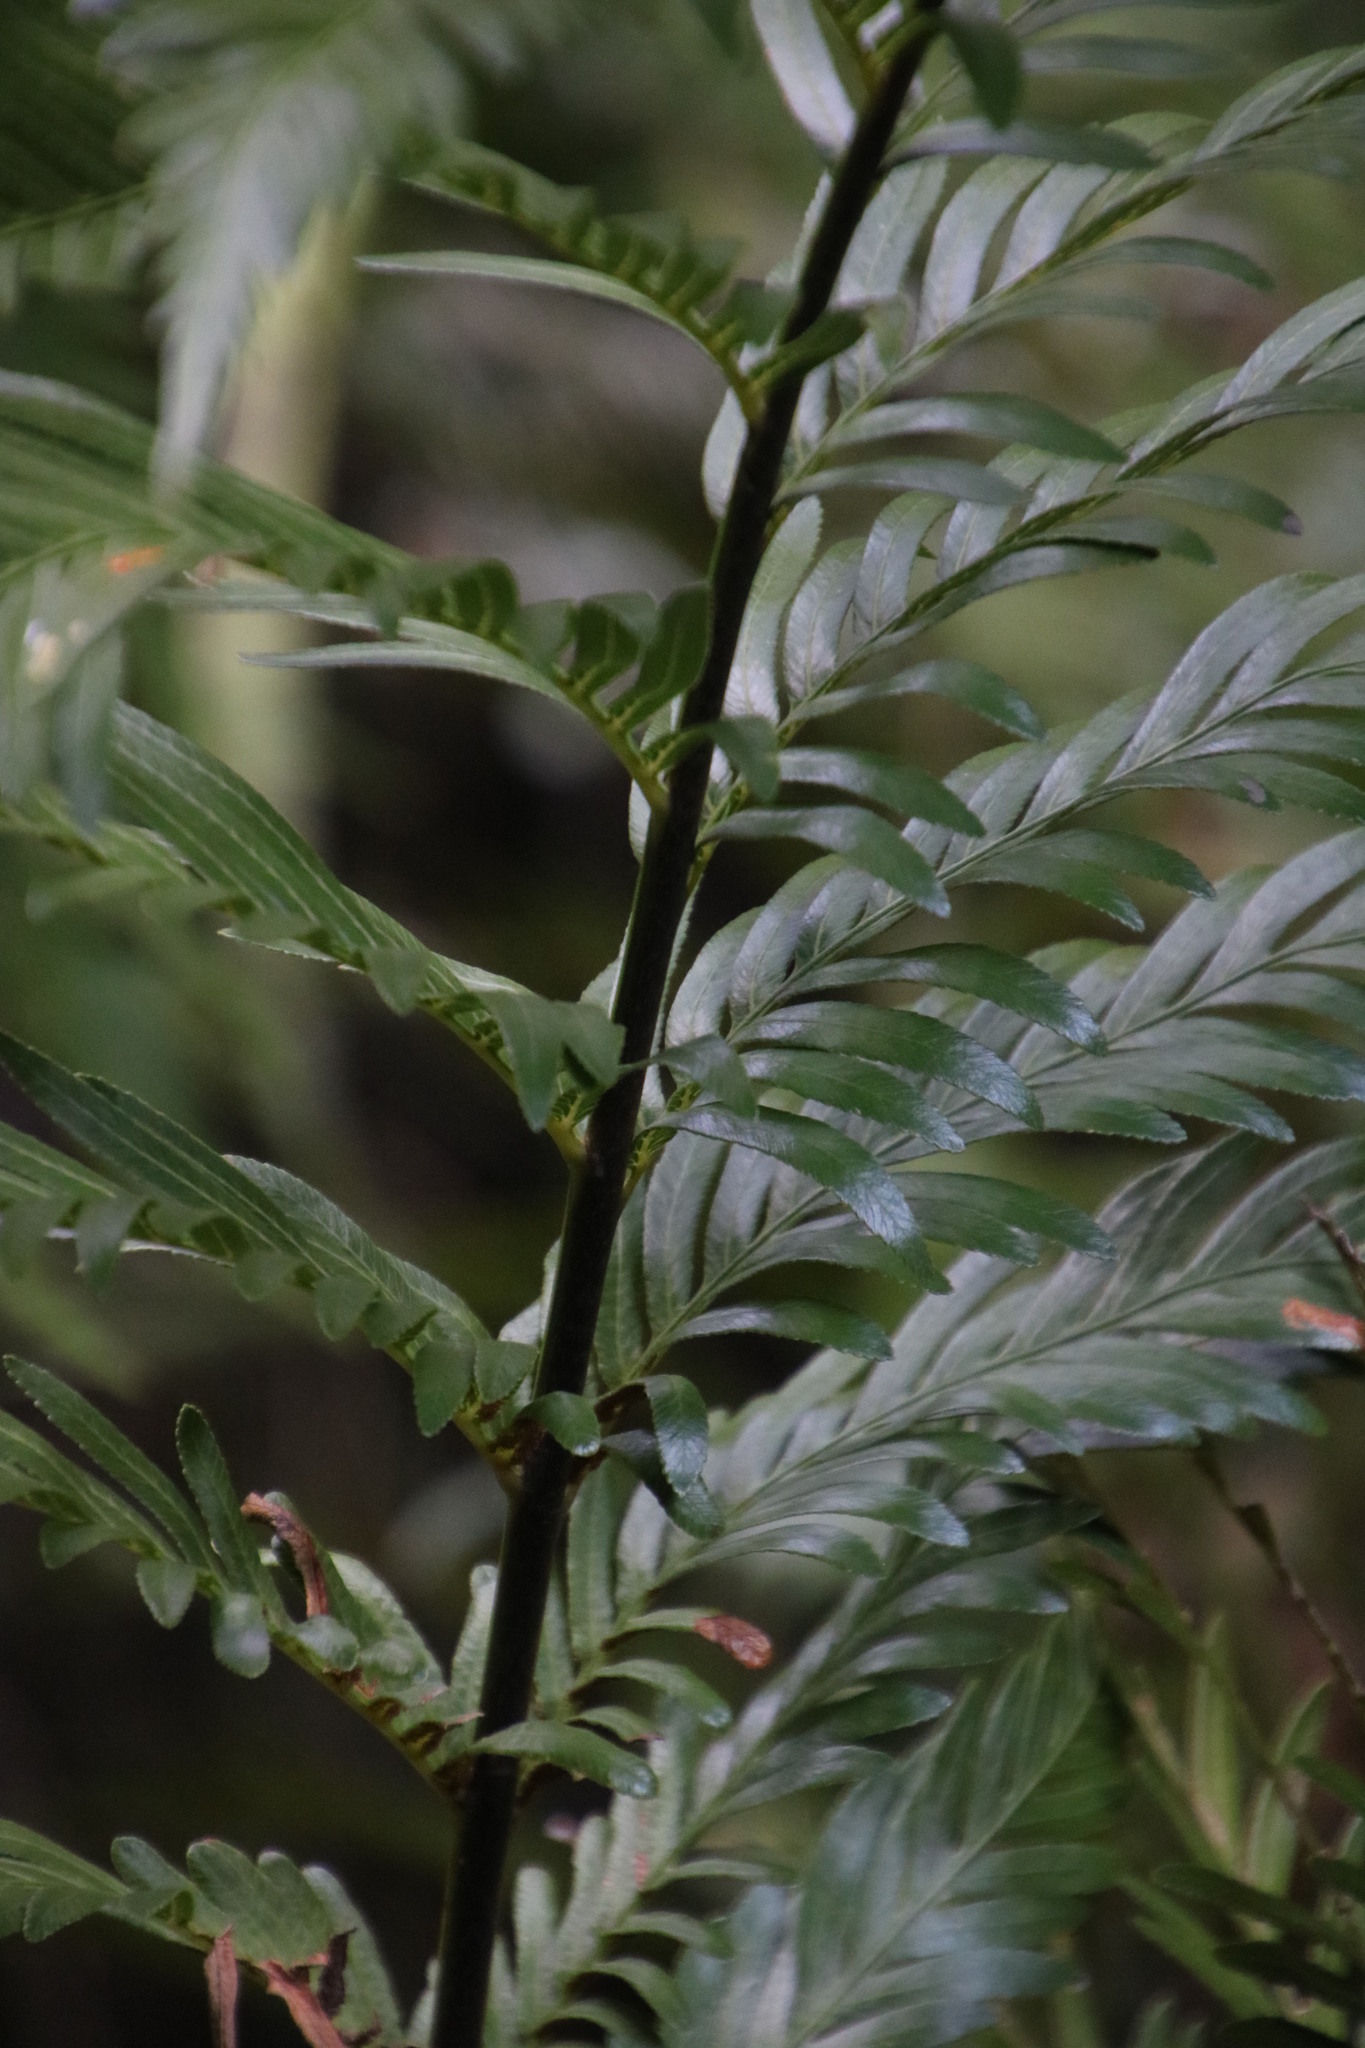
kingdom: Plantae
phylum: Tracheophyta
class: Polypodiopsida
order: Osmundales
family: Osmundaceae
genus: Todea
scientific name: Todea barbara
